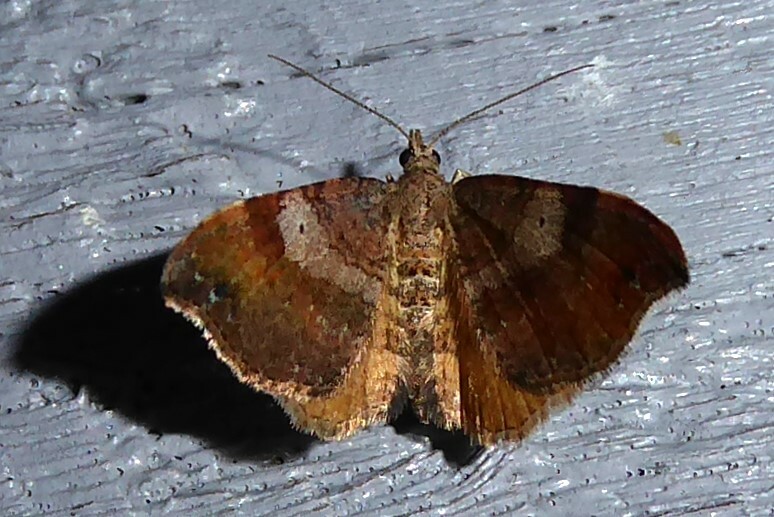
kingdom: Animalia
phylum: Arthropoda
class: Insecta
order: Lepidoptera
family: Geometridae
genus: Homodotis
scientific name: Homodotis megaspilata
